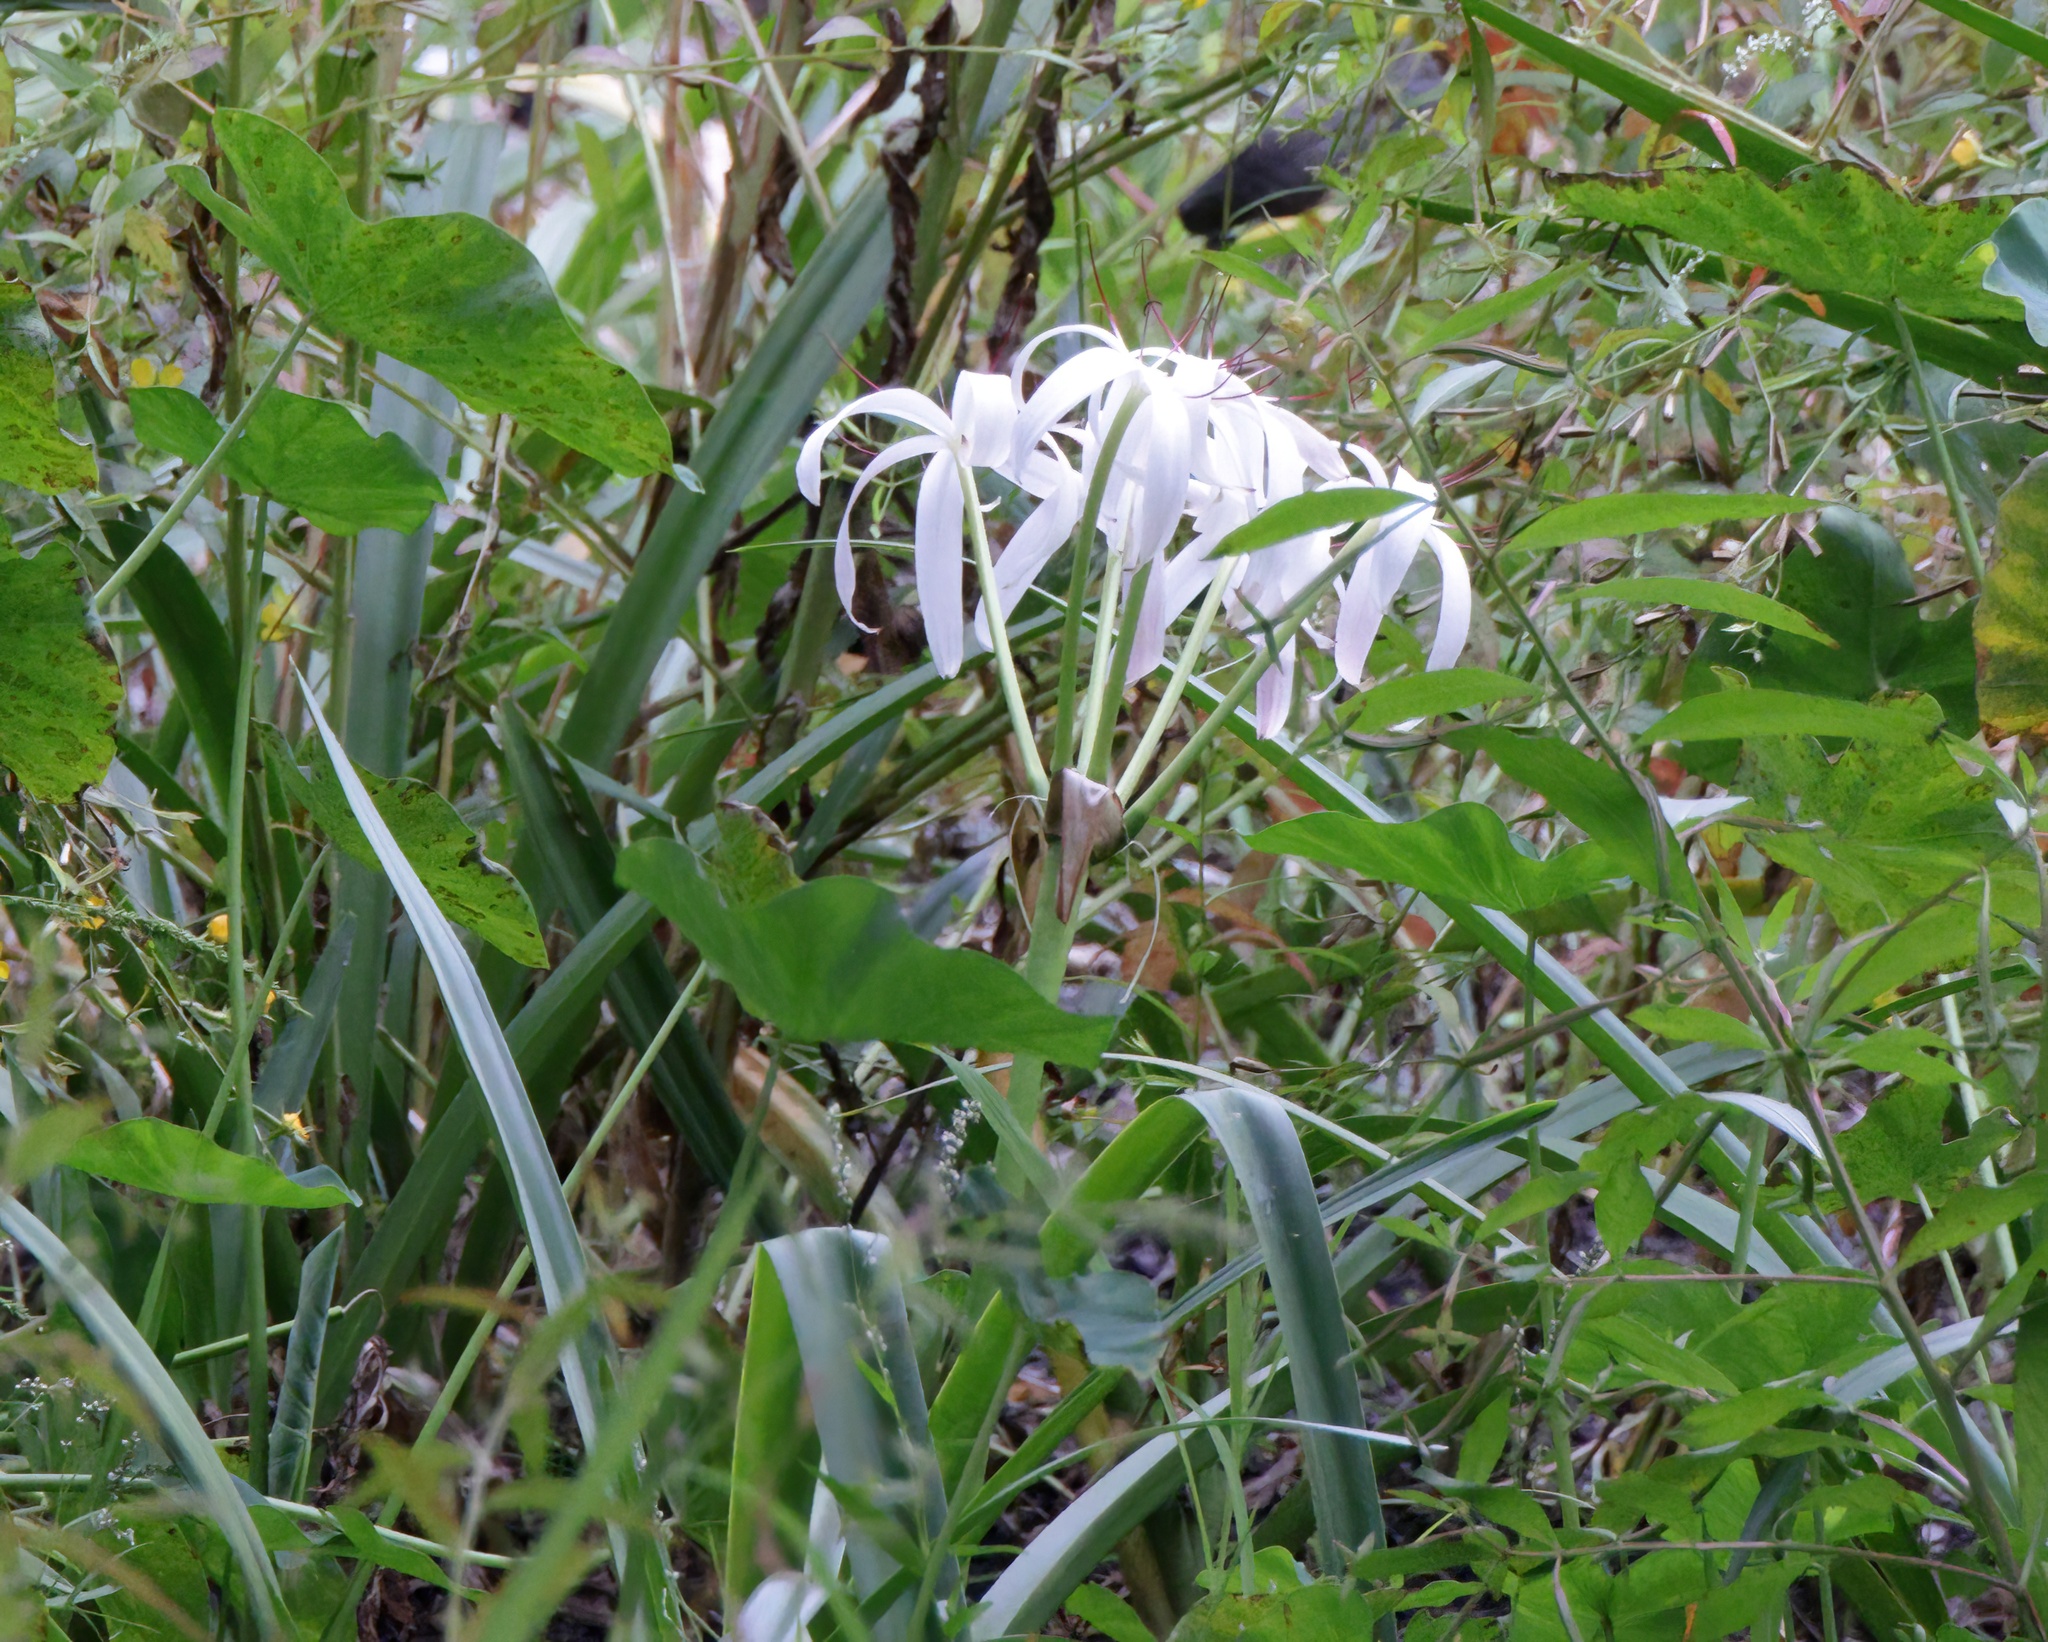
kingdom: Plantae
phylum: Tracheophyta
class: Liliopsida
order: Asparagales
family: Amaryllidaceae
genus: Crinum
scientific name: Crinum americanum
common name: Florida swamp-lily
